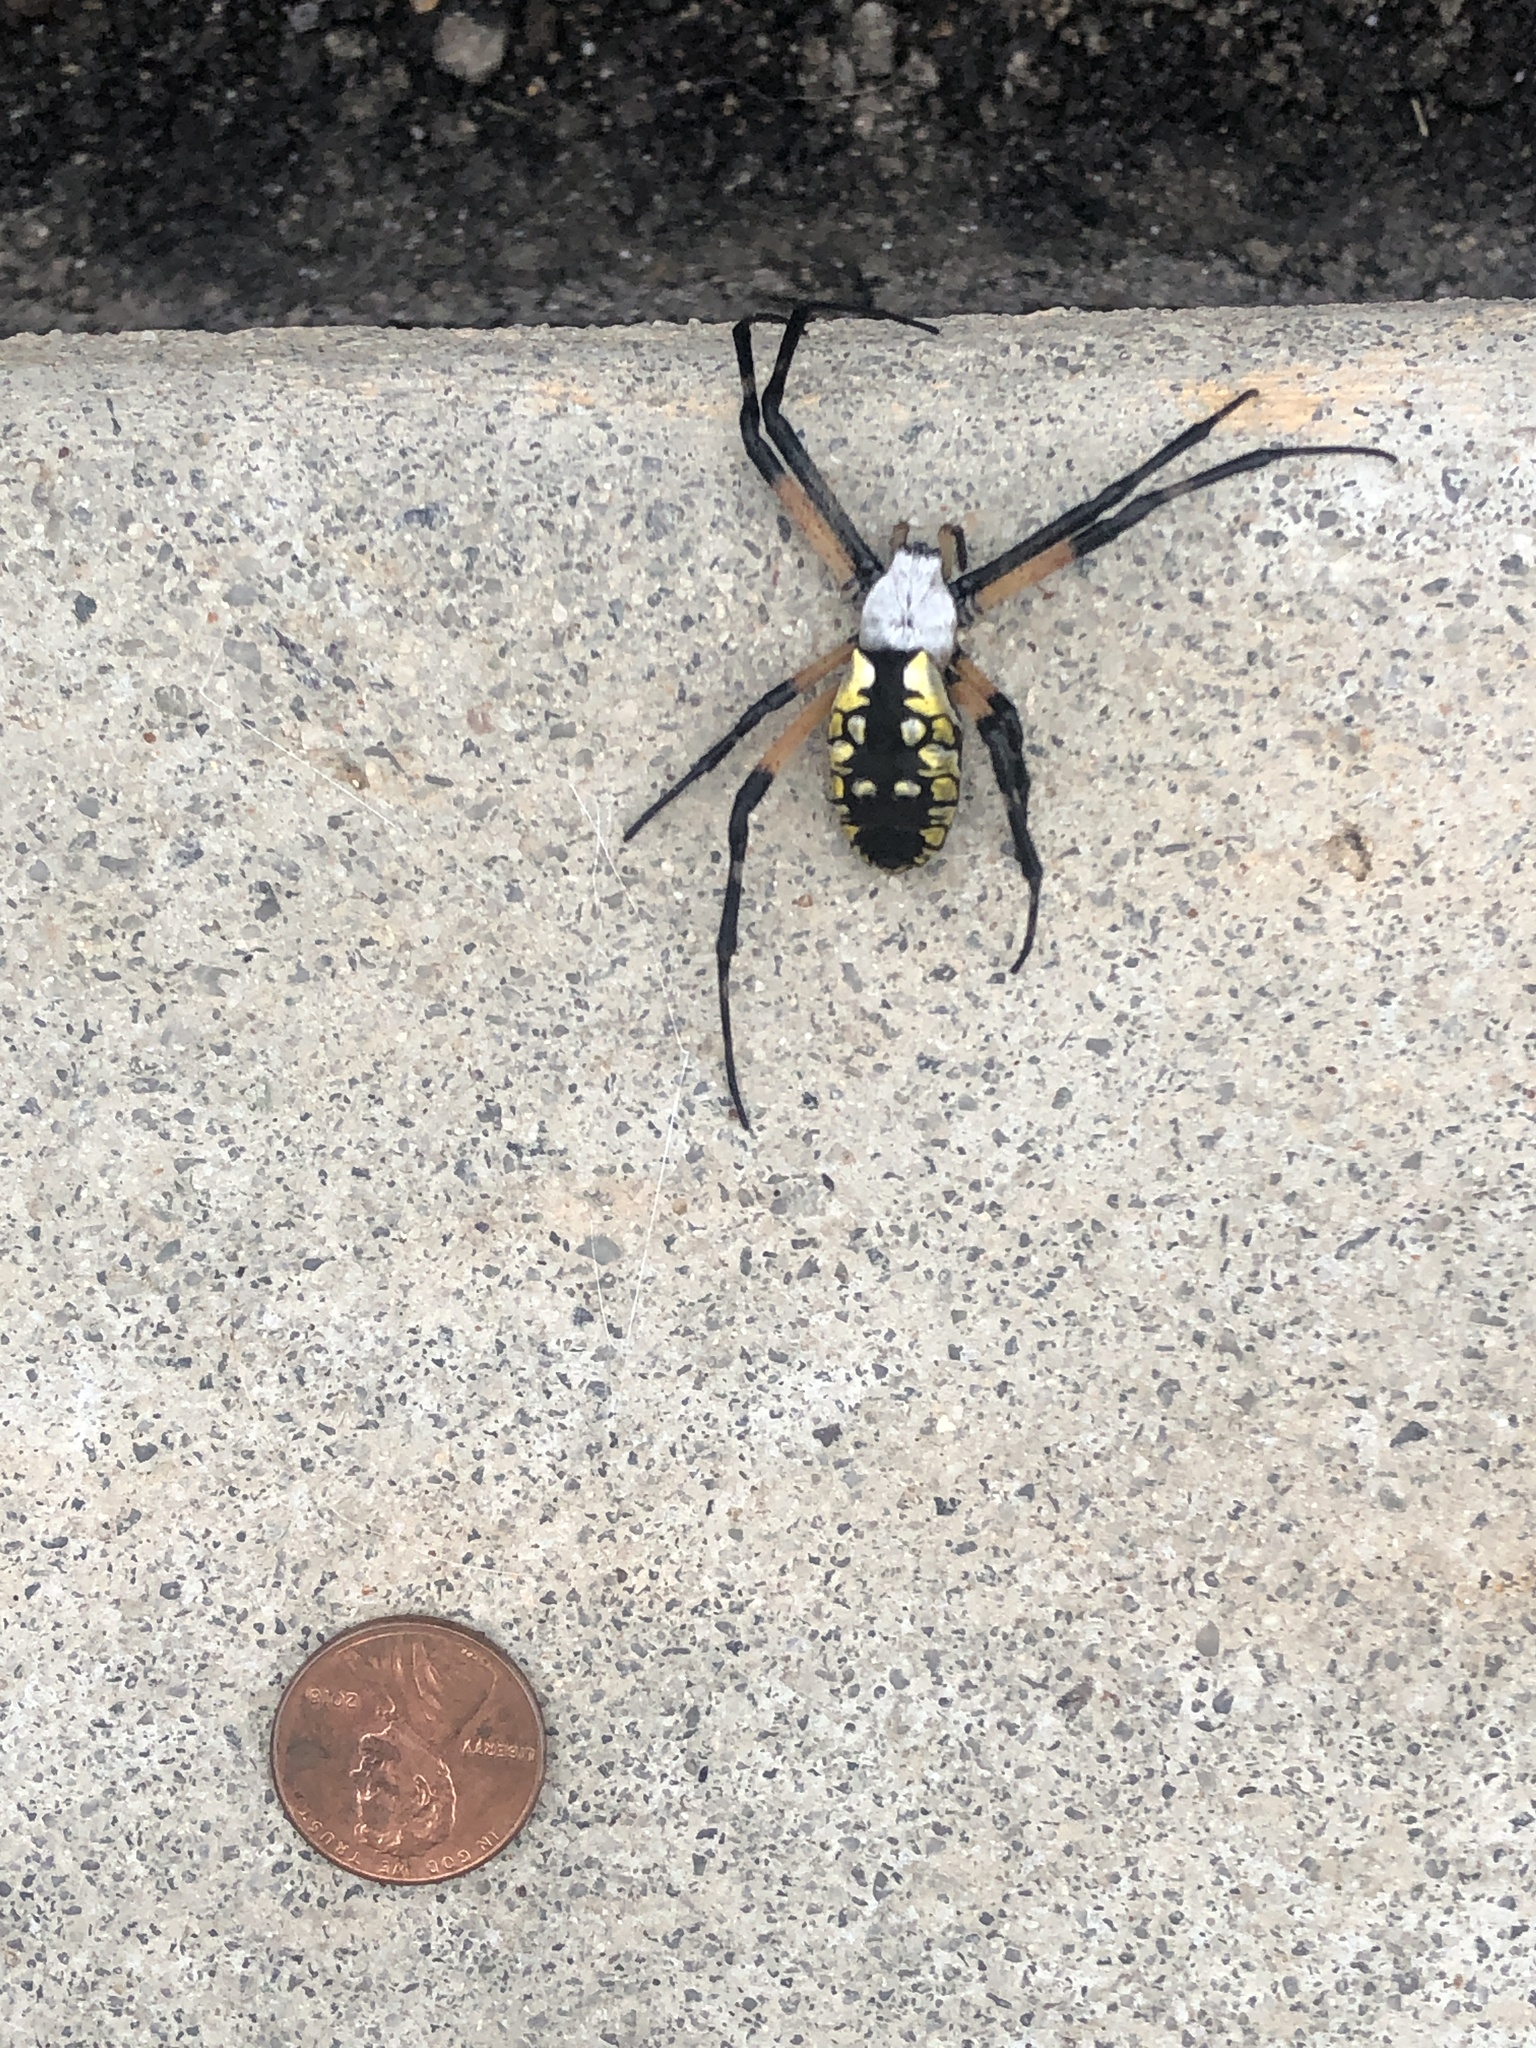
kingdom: Animalia
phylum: Arthropoda
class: Arachnida
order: Araneae
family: Araneidae
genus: Argiope
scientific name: Argiope aurantia
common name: Orb weavers
